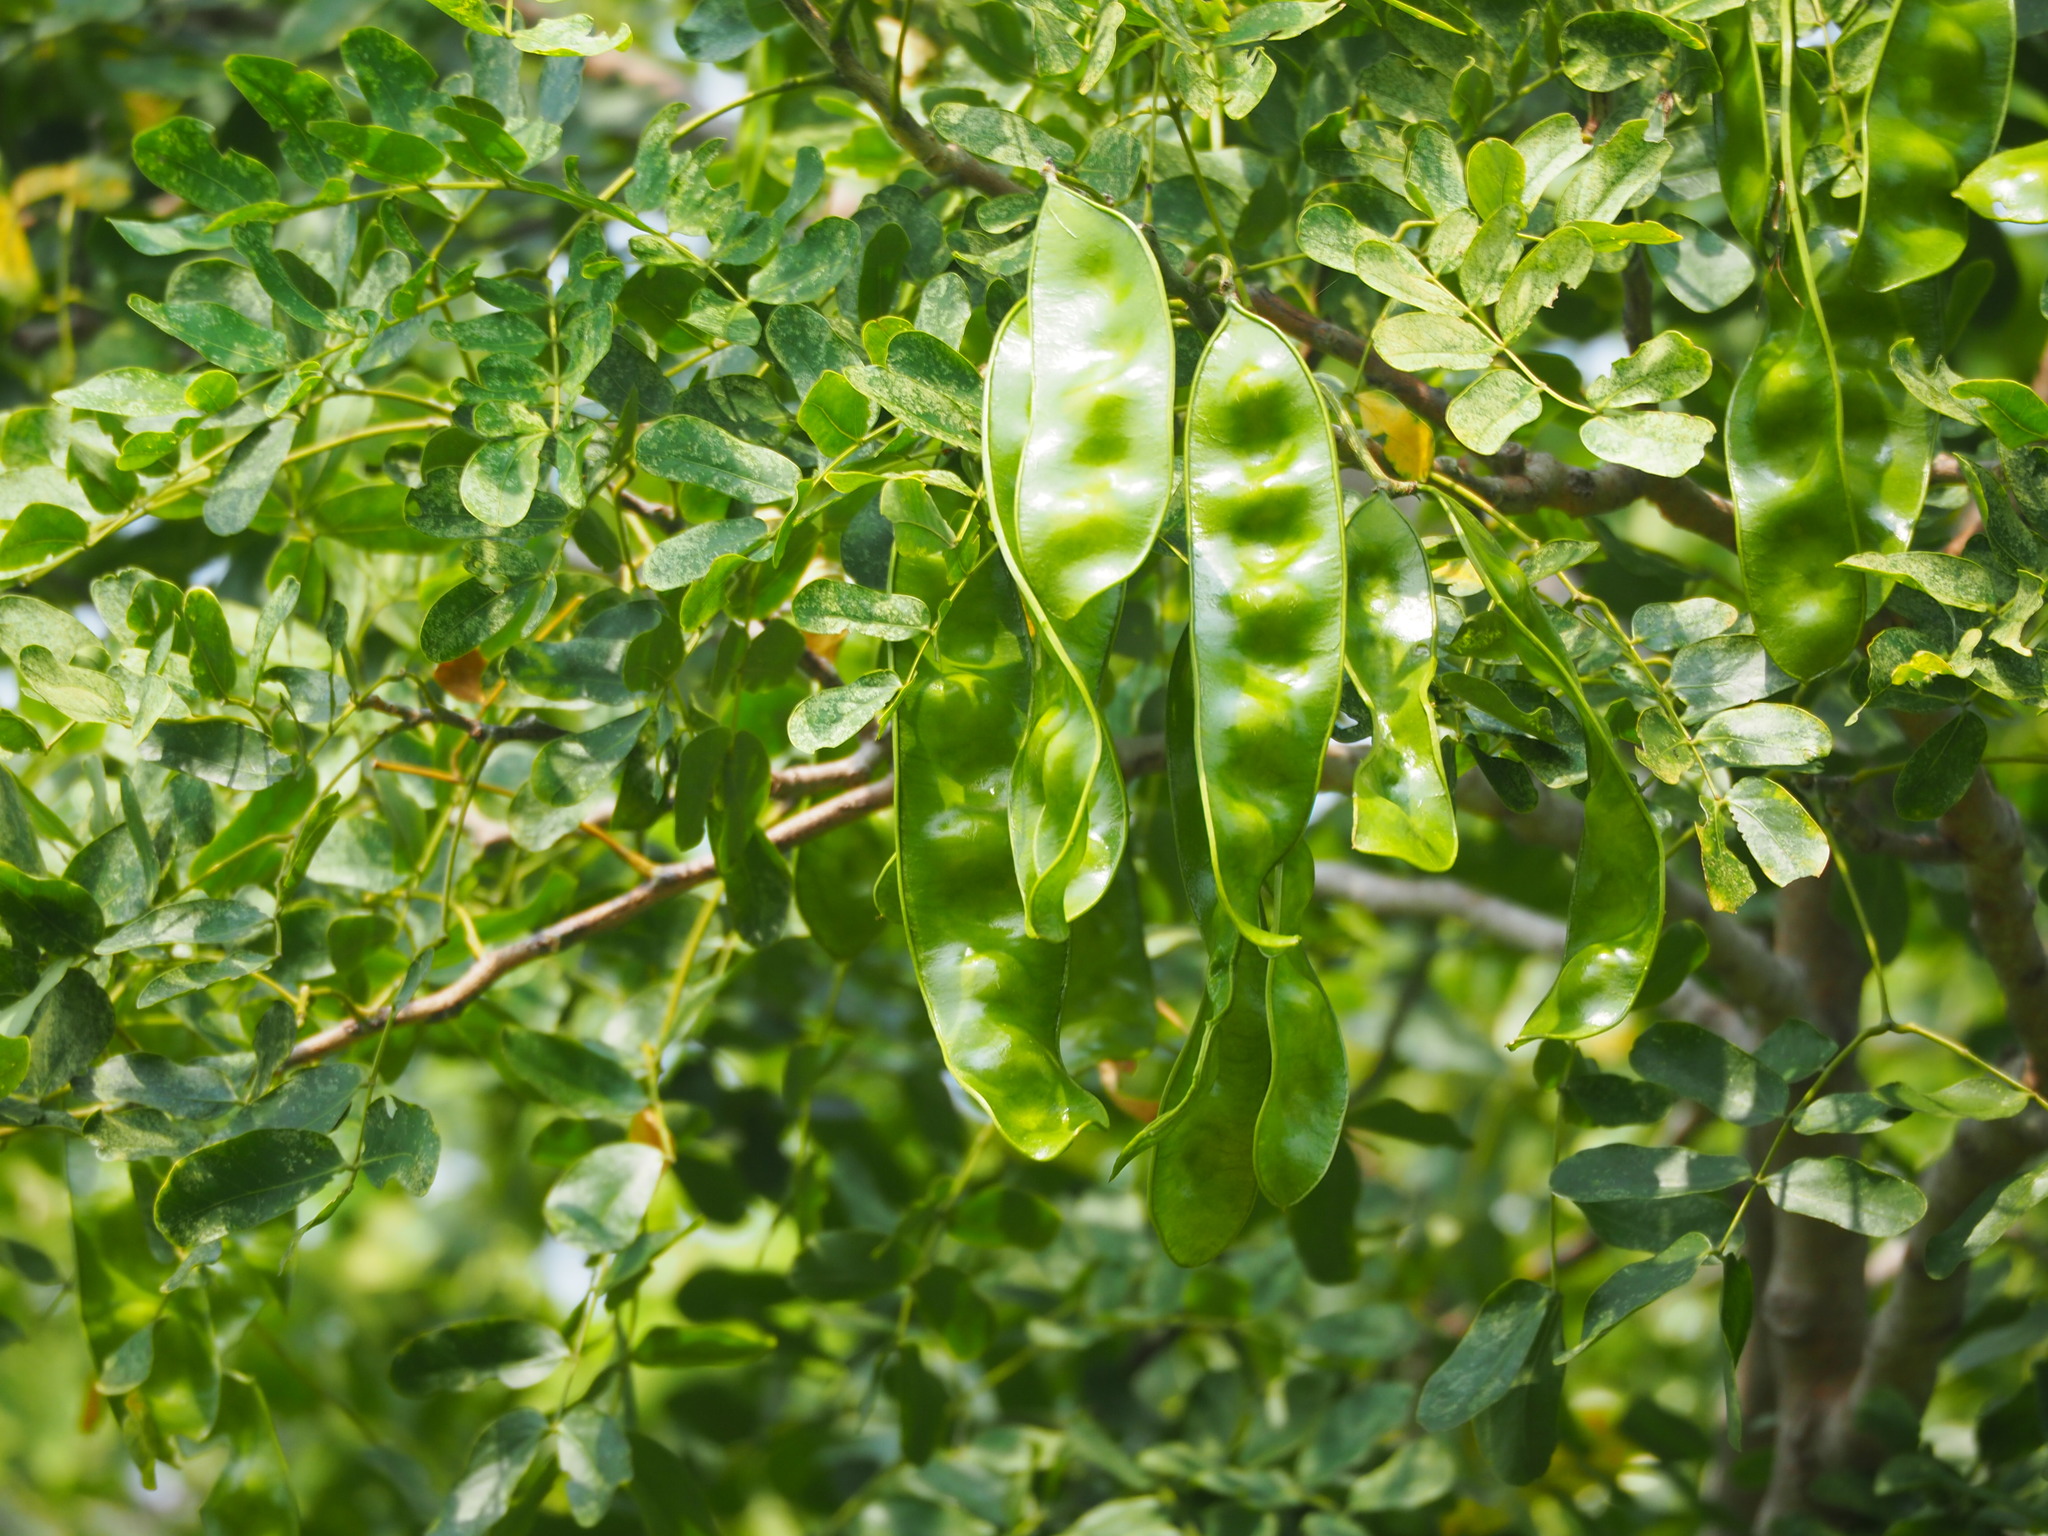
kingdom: Plantae
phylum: Tracheophyta
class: Magnoliopsida
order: Fabales
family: Fabaceae
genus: Albizia
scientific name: Albizia lebbeck
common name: Woman's tongue
